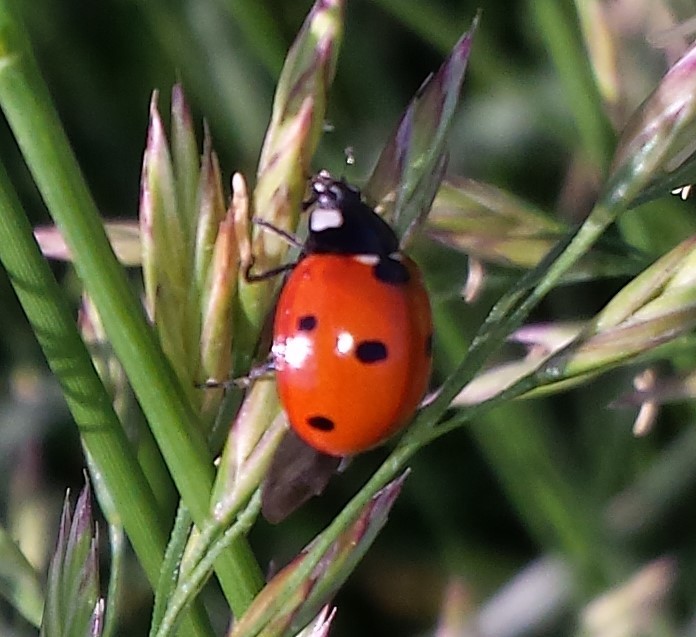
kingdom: Animalia
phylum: Arthropoda
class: Insecta
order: Coleoptera
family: Coccinellidae
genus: Coccinella
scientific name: Coccinella septempunctata
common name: Sevenspotted lady beetle
